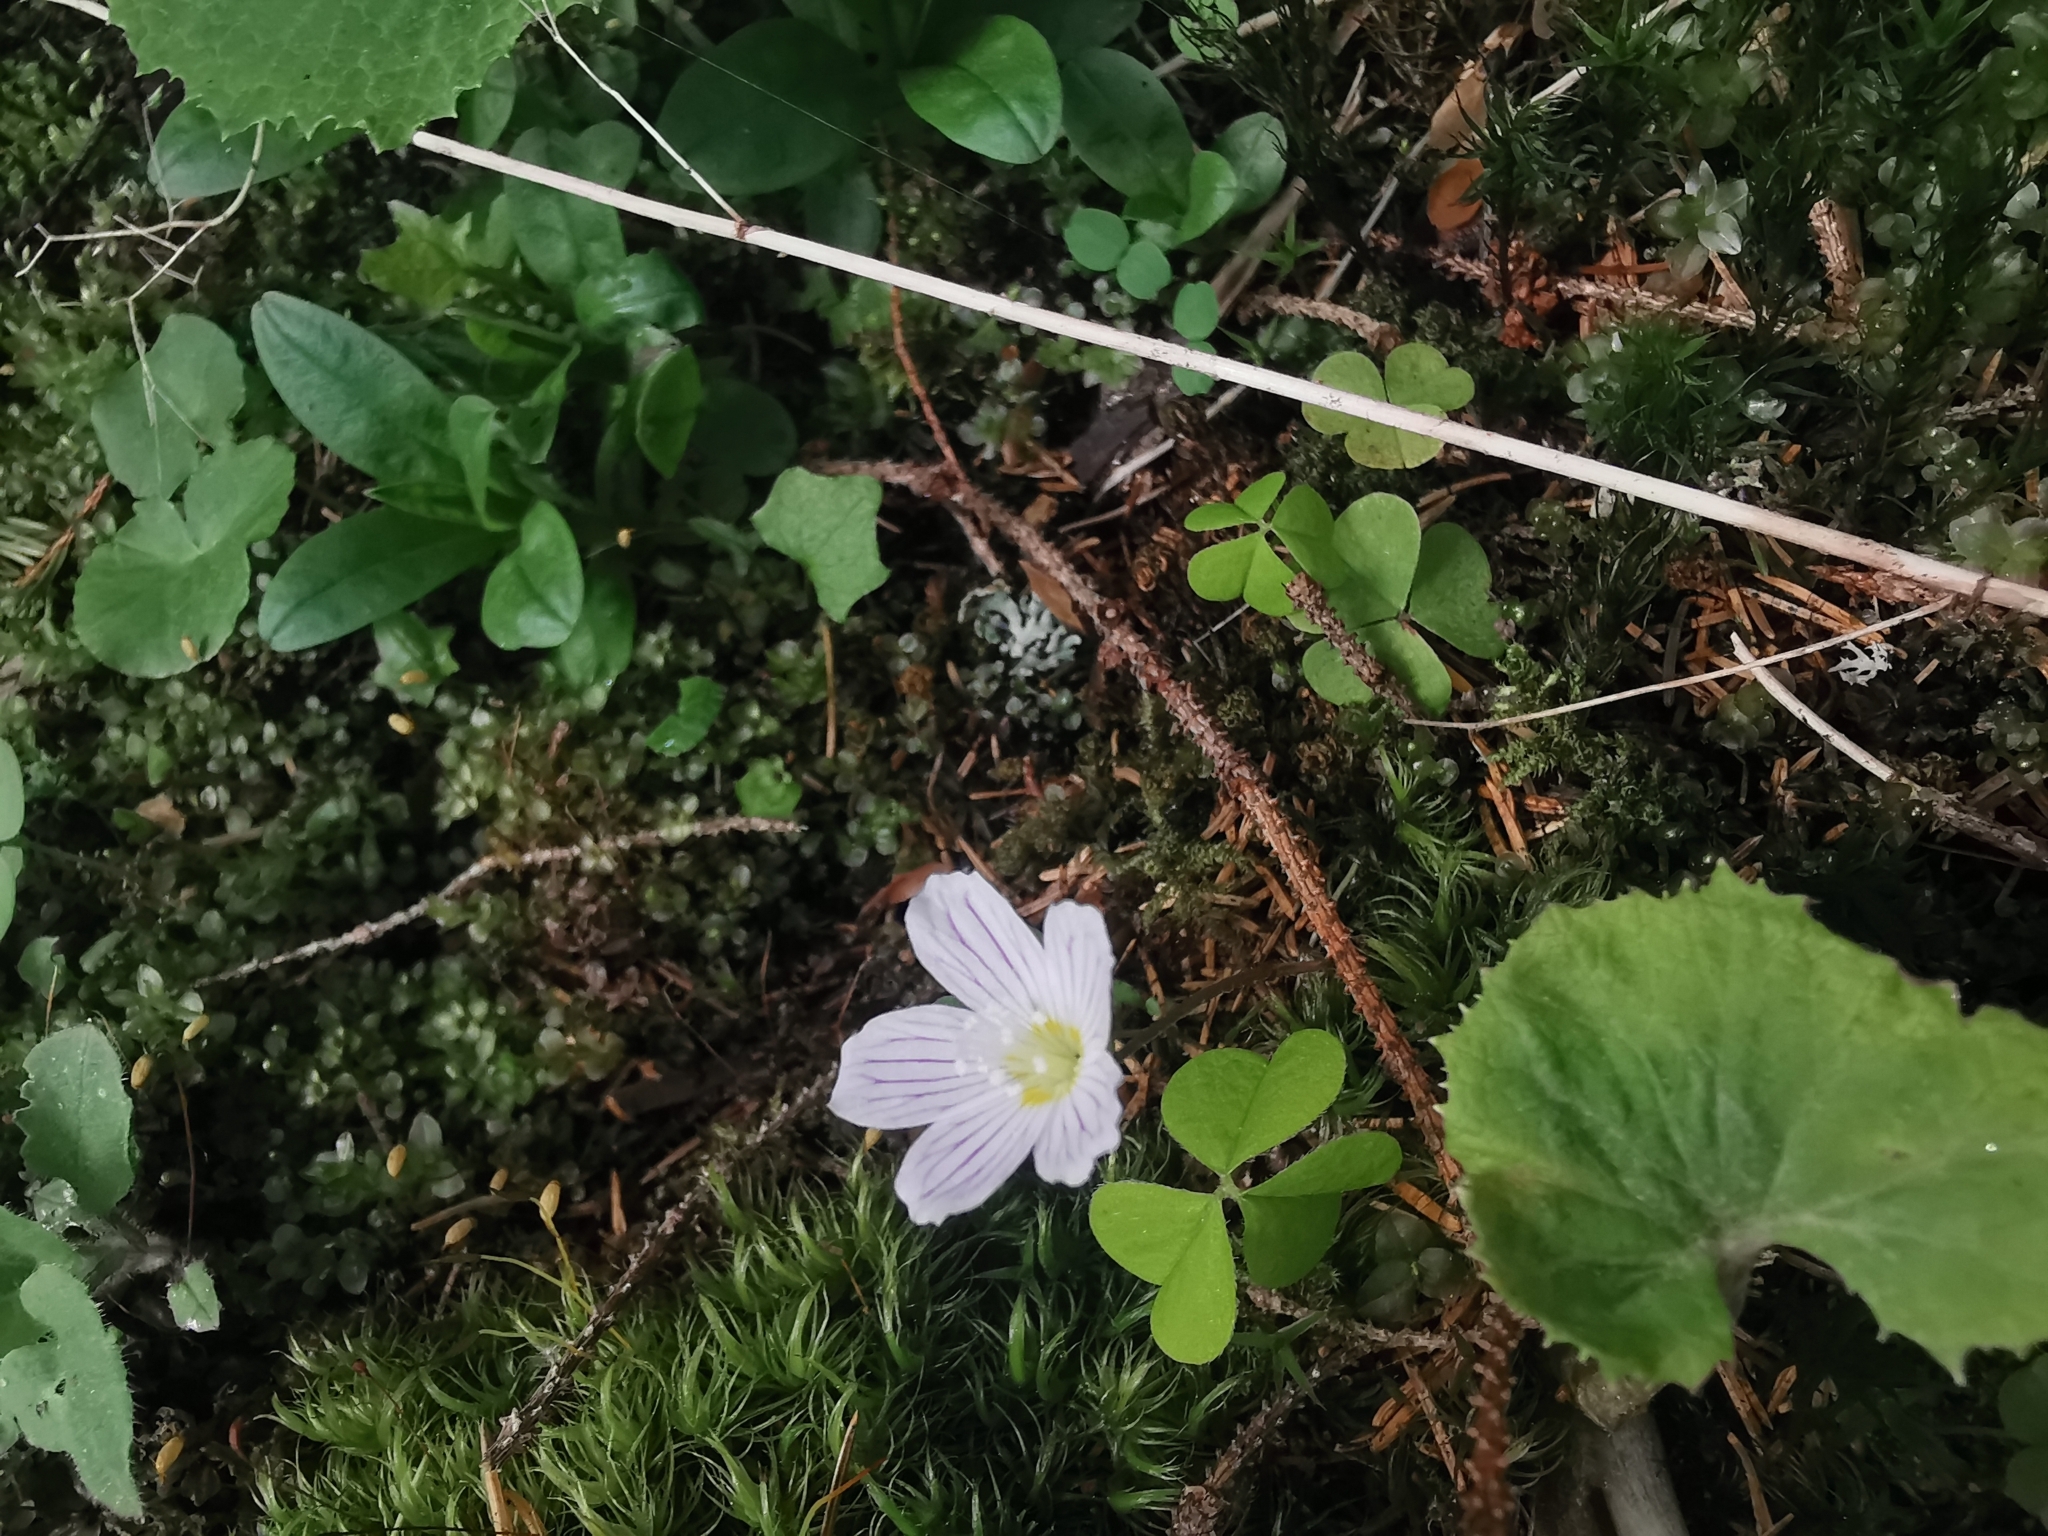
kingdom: Plantae
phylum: Tracheophyta
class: Magnoliopsida
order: Oxalidales
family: Oxalidaceae
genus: Oxalis
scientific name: Oxalis acetosella
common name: Wood-sorrel
